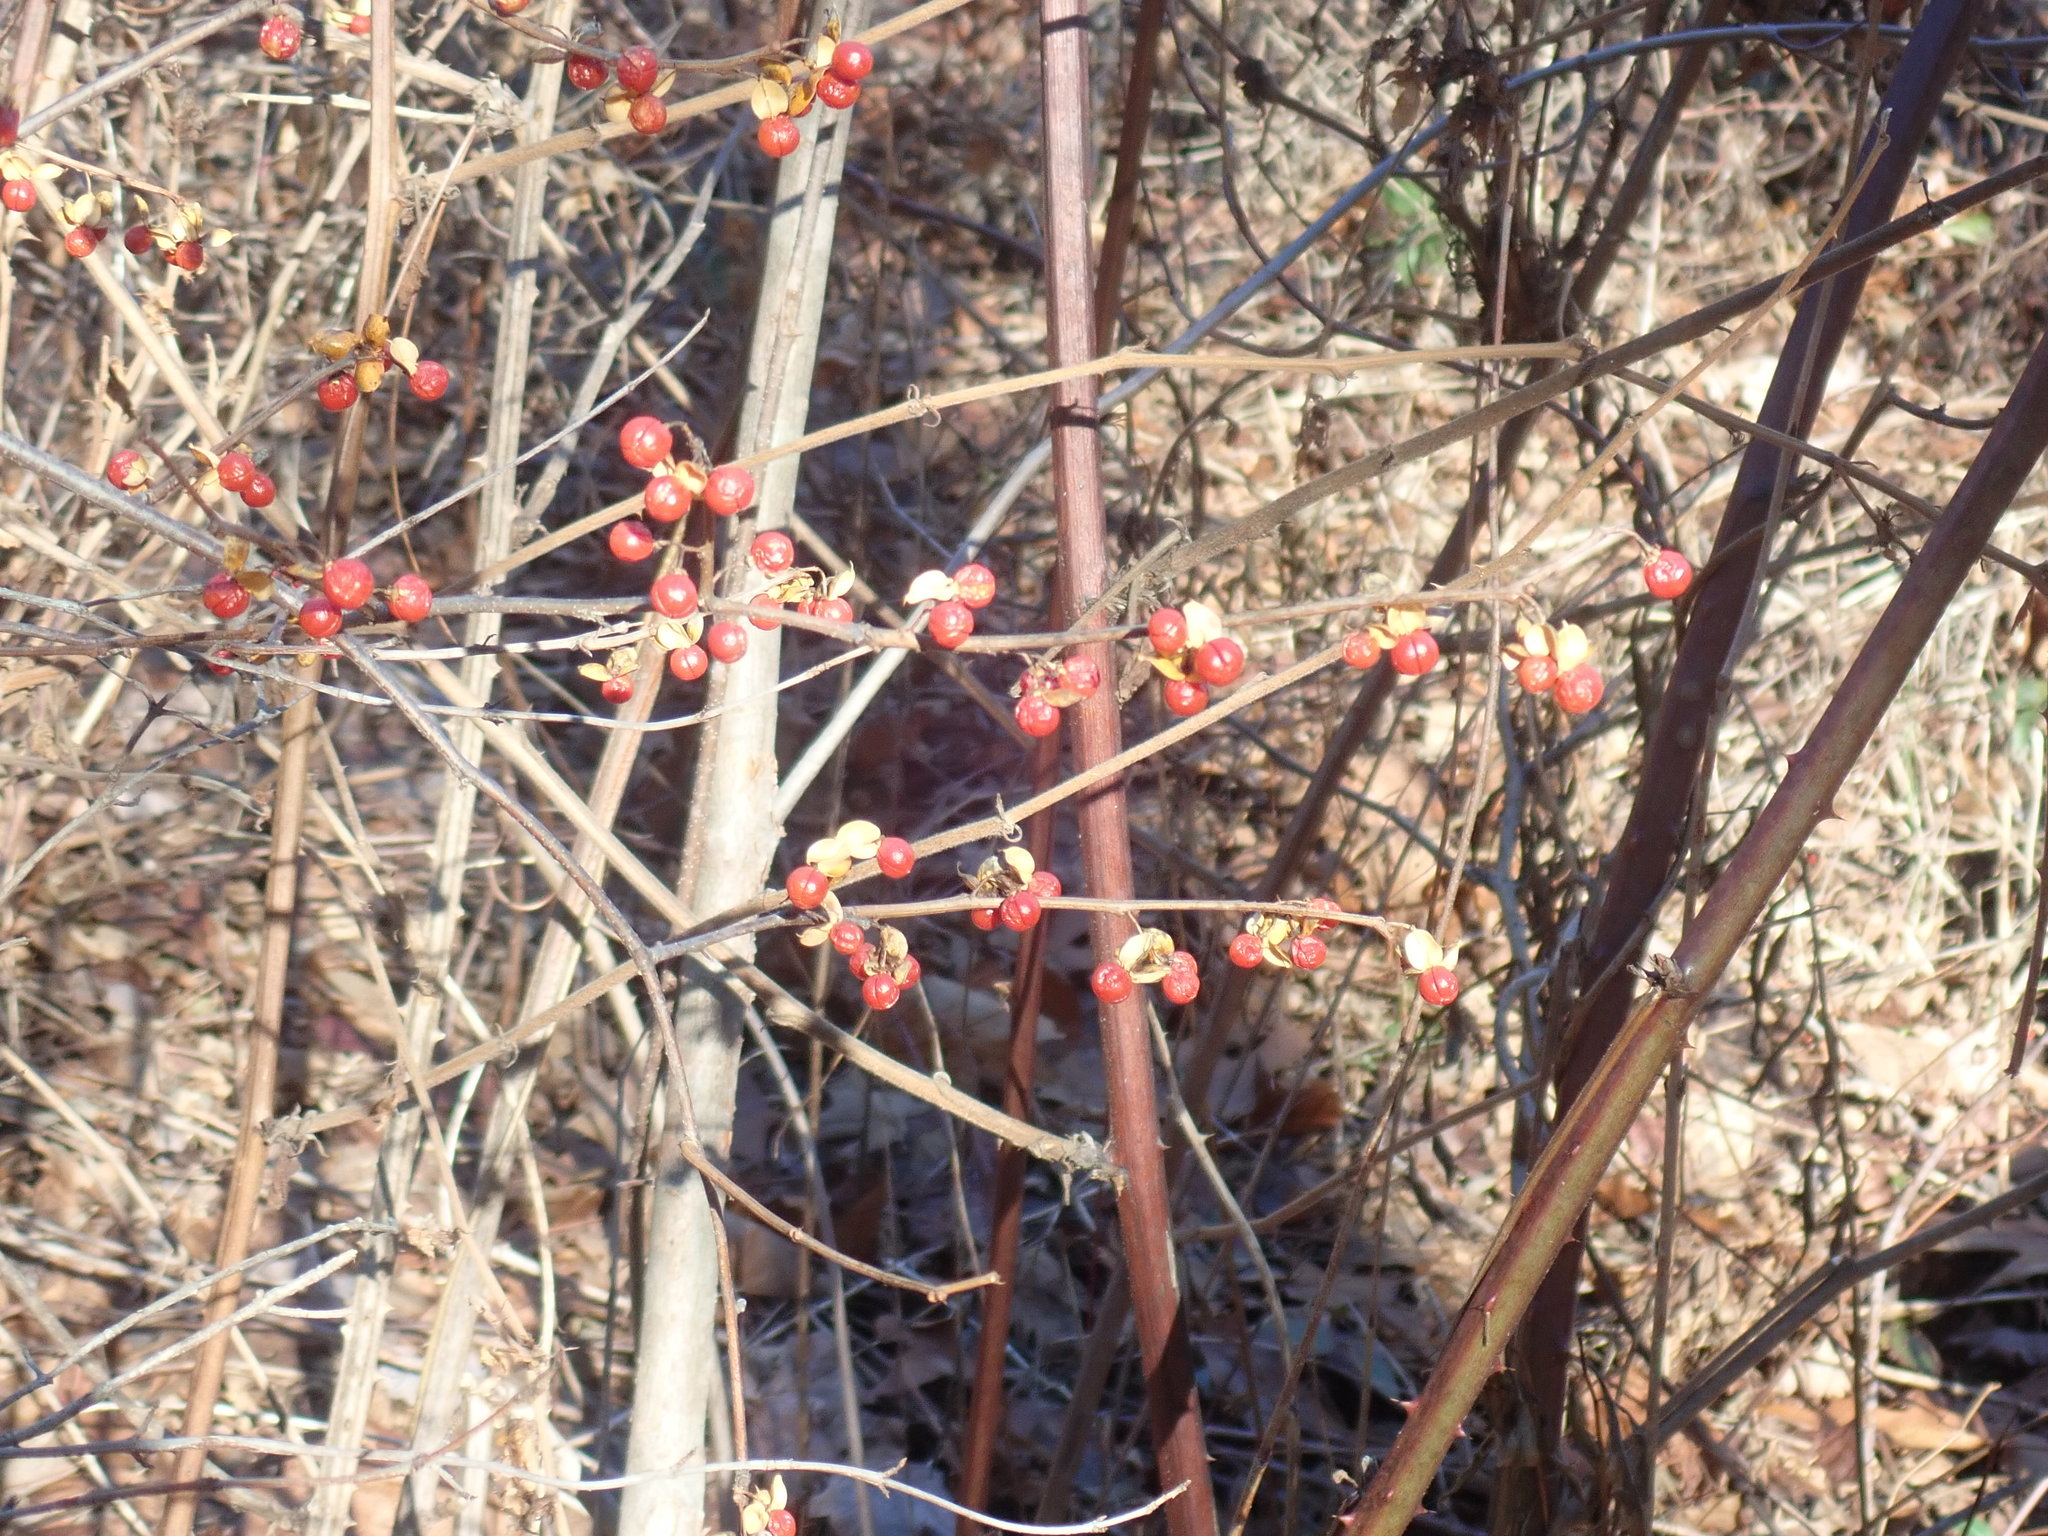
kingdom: Plantae
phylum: Tracheophyta
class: Magnoliopsida
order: Celastrales
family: Celastraceae
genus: Celastrus
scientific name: Celastrus orbiculatus
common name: Oriental bittersweet
